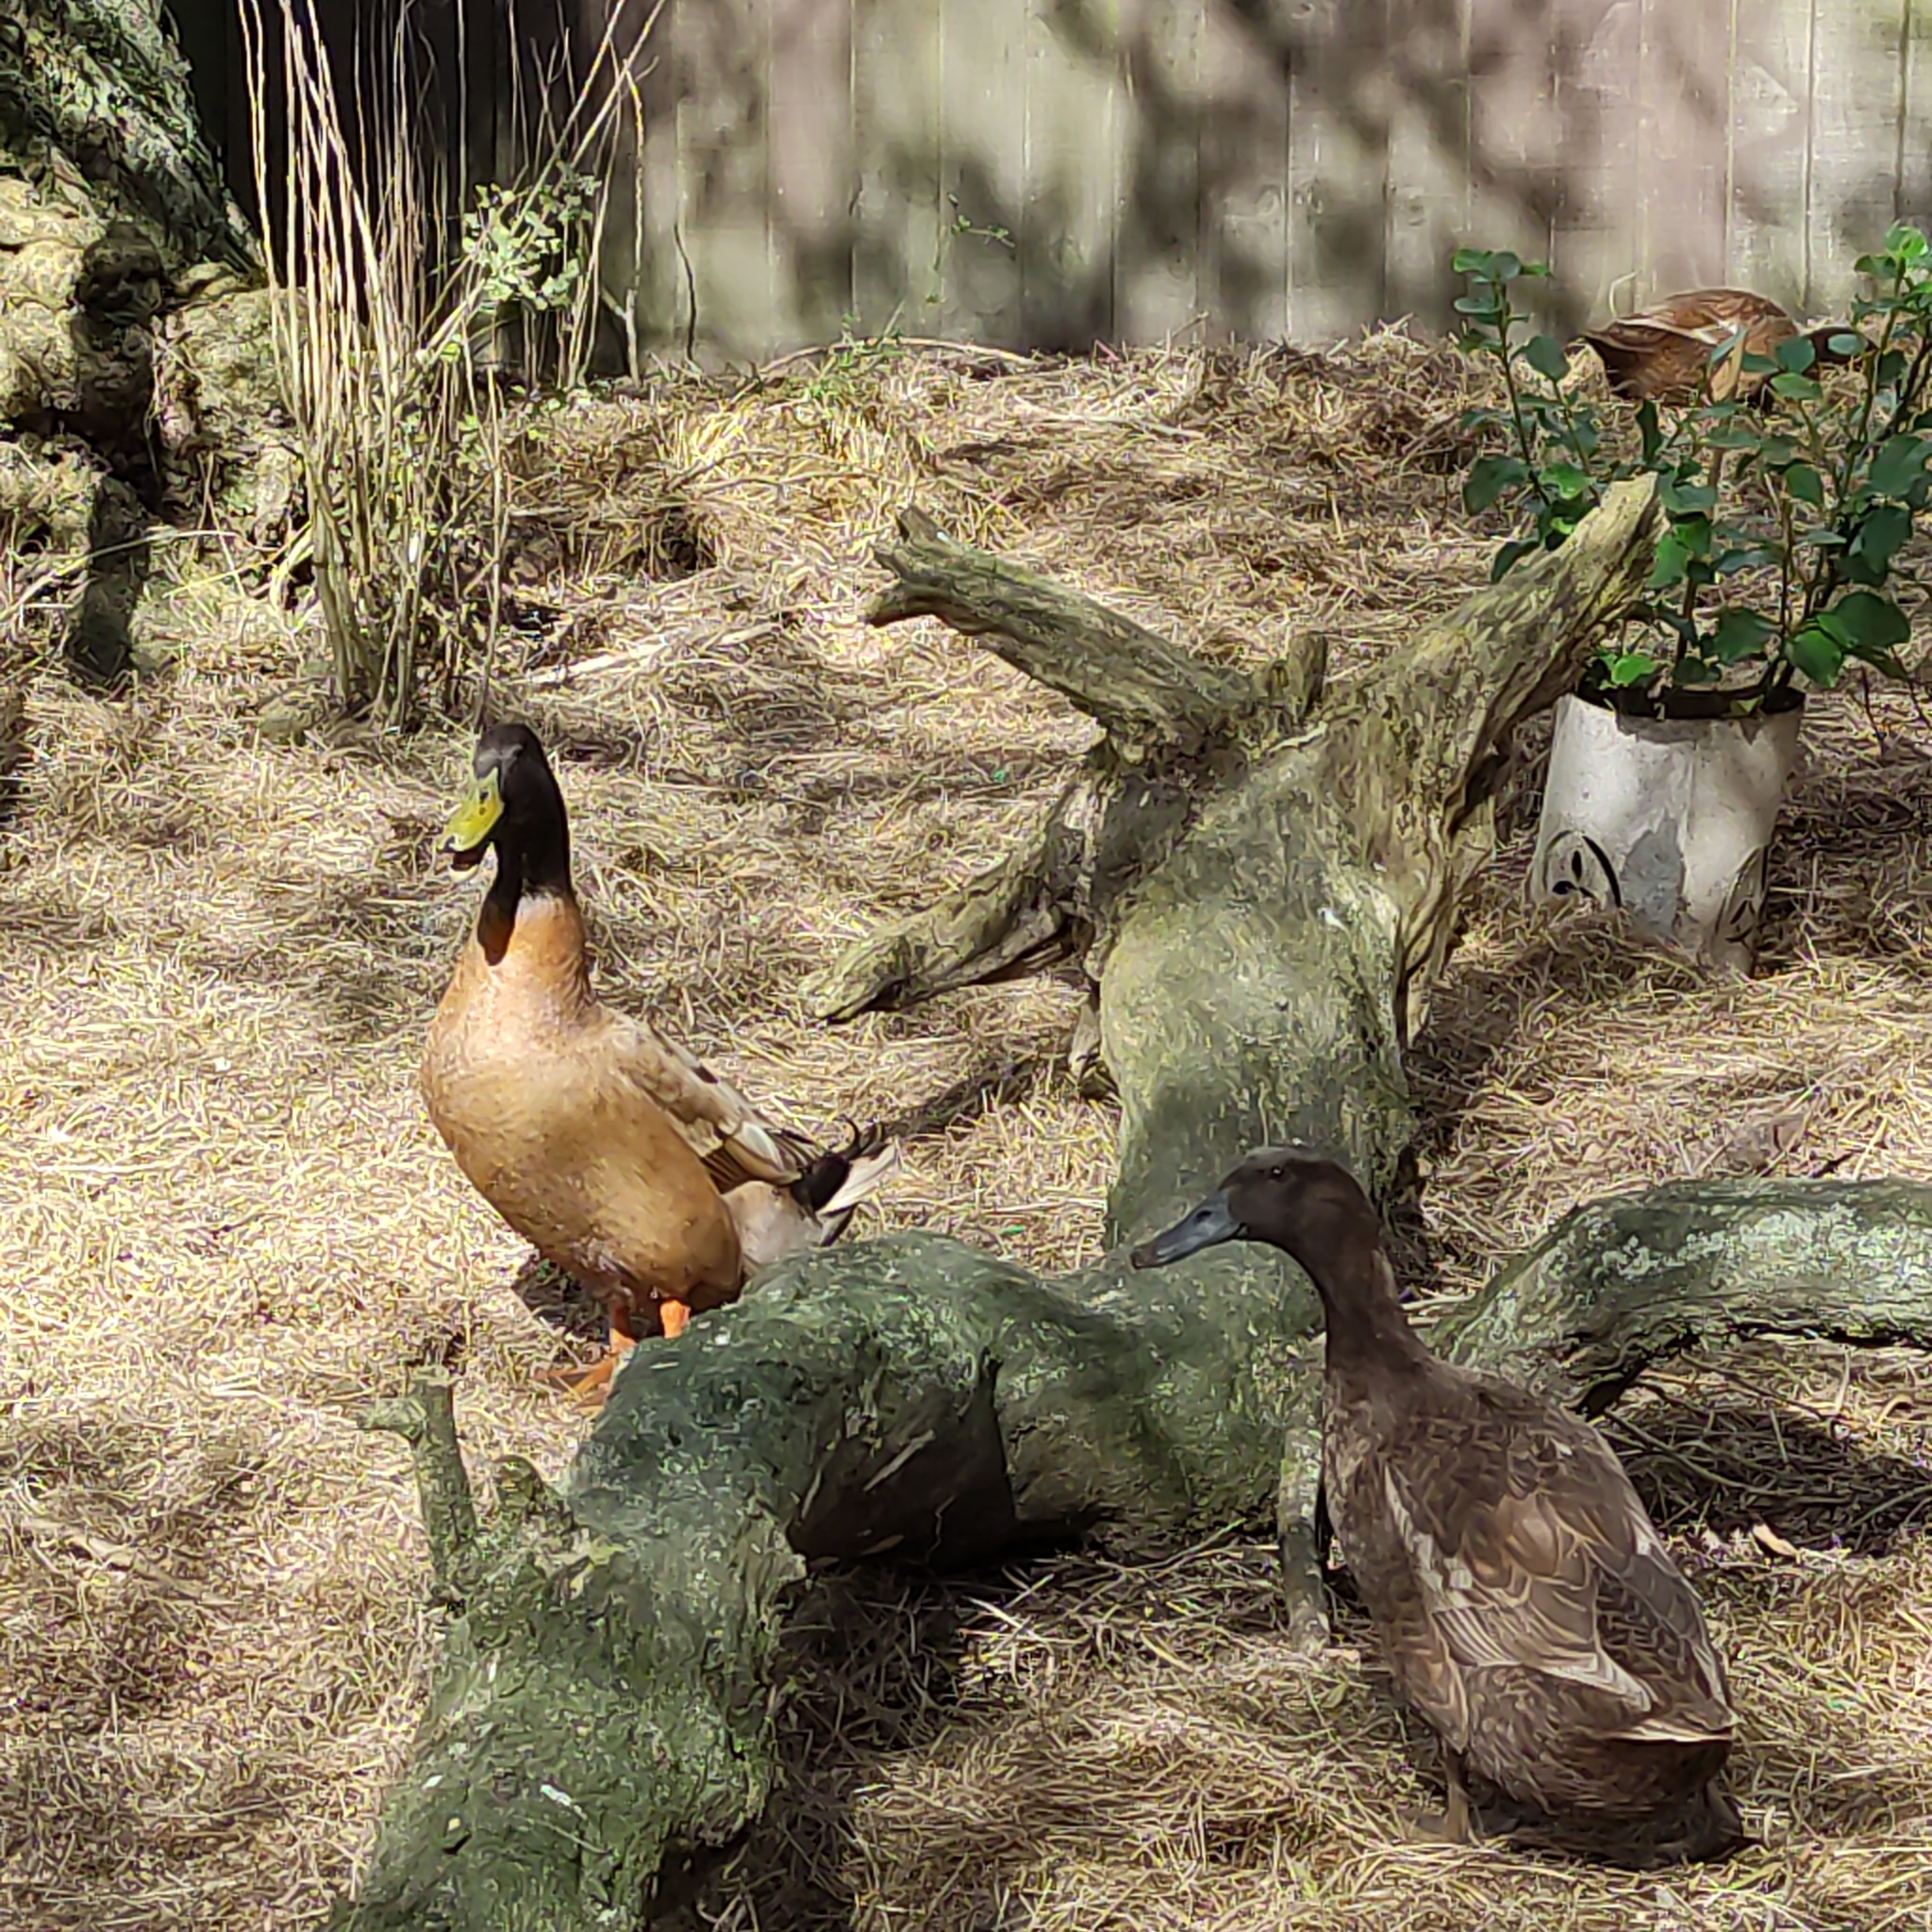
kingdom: Animalia
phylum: Chordata
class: Aves
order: Anseriformes
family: Anatidae
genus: Anas
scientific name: Anas platyrhynchos
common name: Mallard
